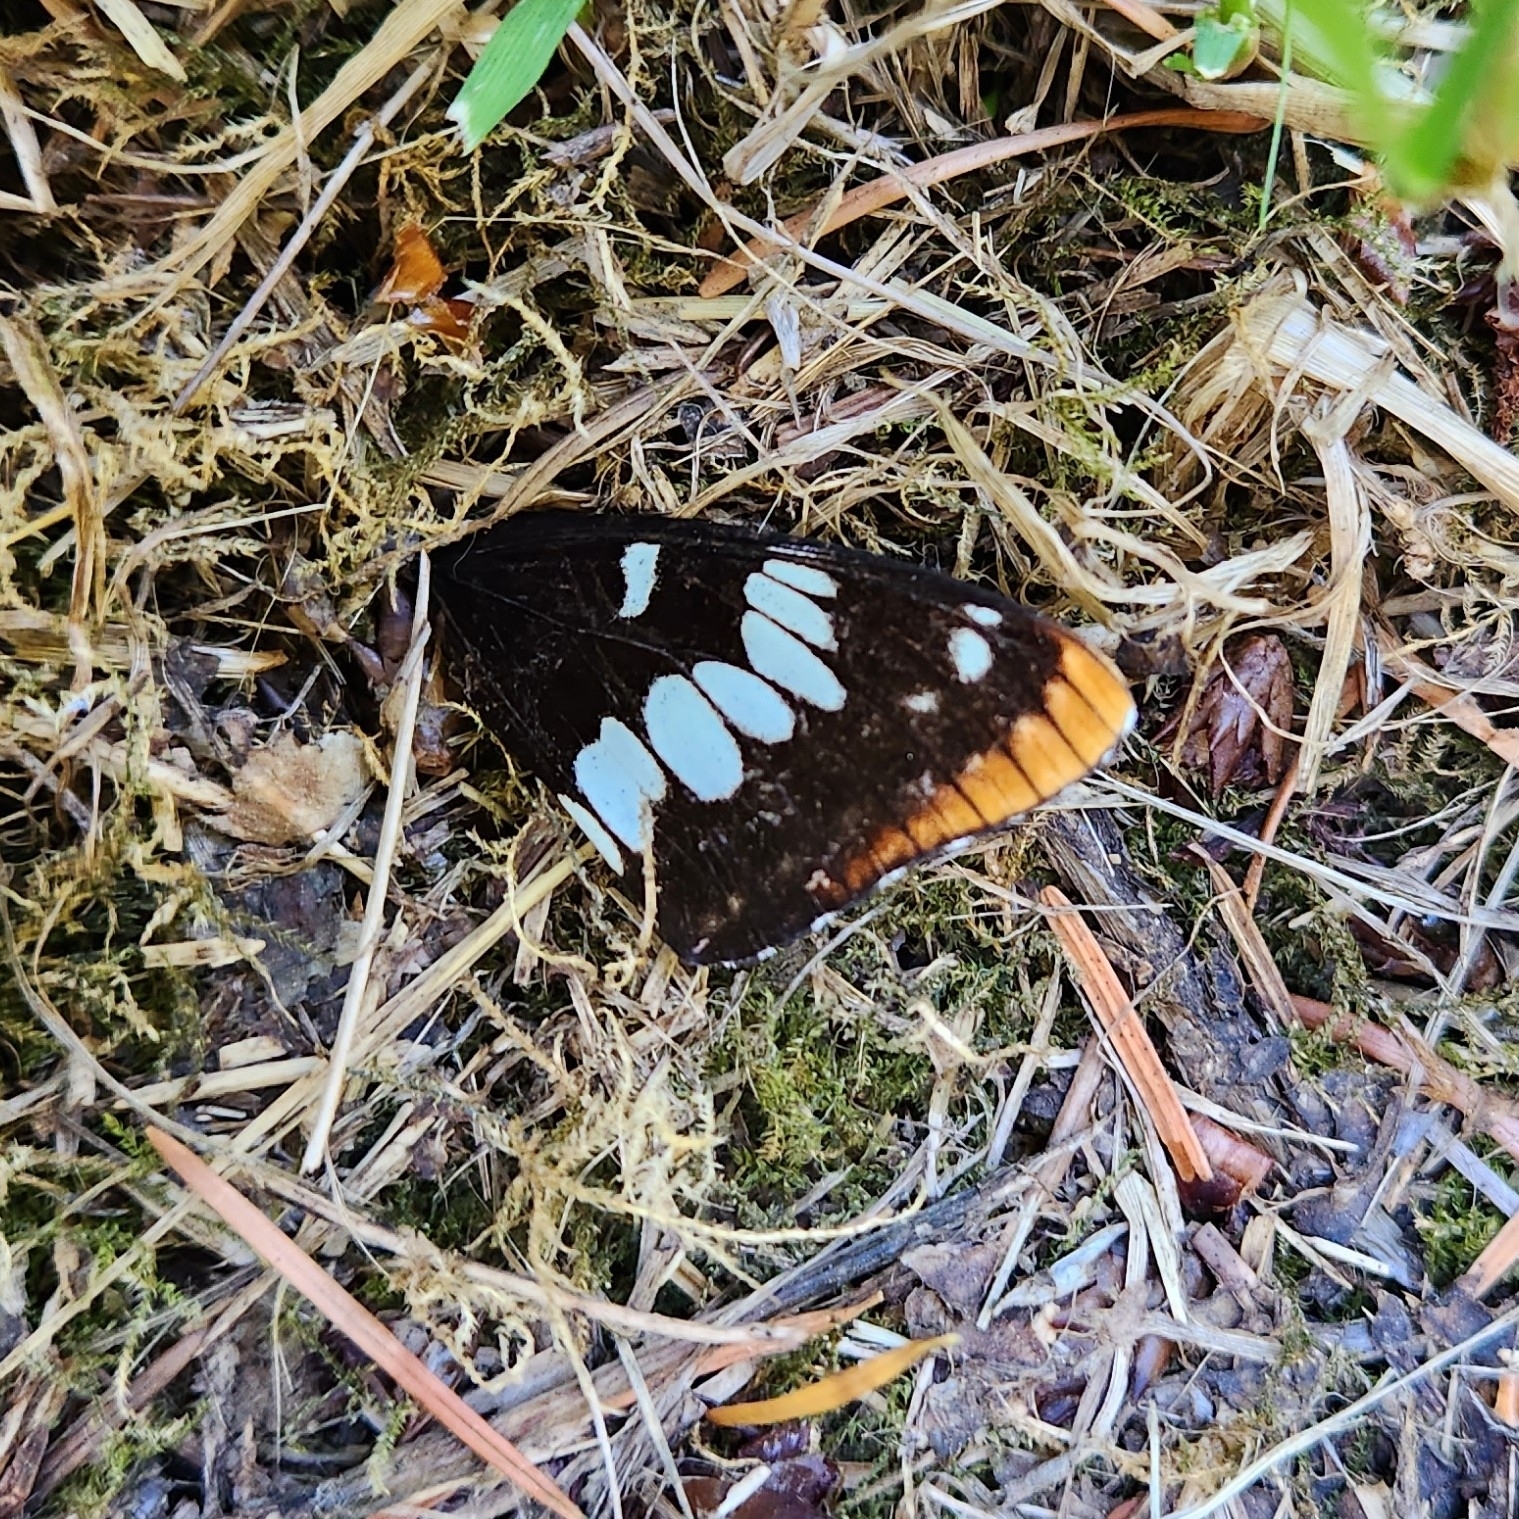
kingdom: Animalia
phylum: Arthropoda
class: Insecta
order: Lepidoptera
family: Nymphalidae
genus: Limenitis
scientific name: Limenitis lorquini
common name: Lorquin's admiral
